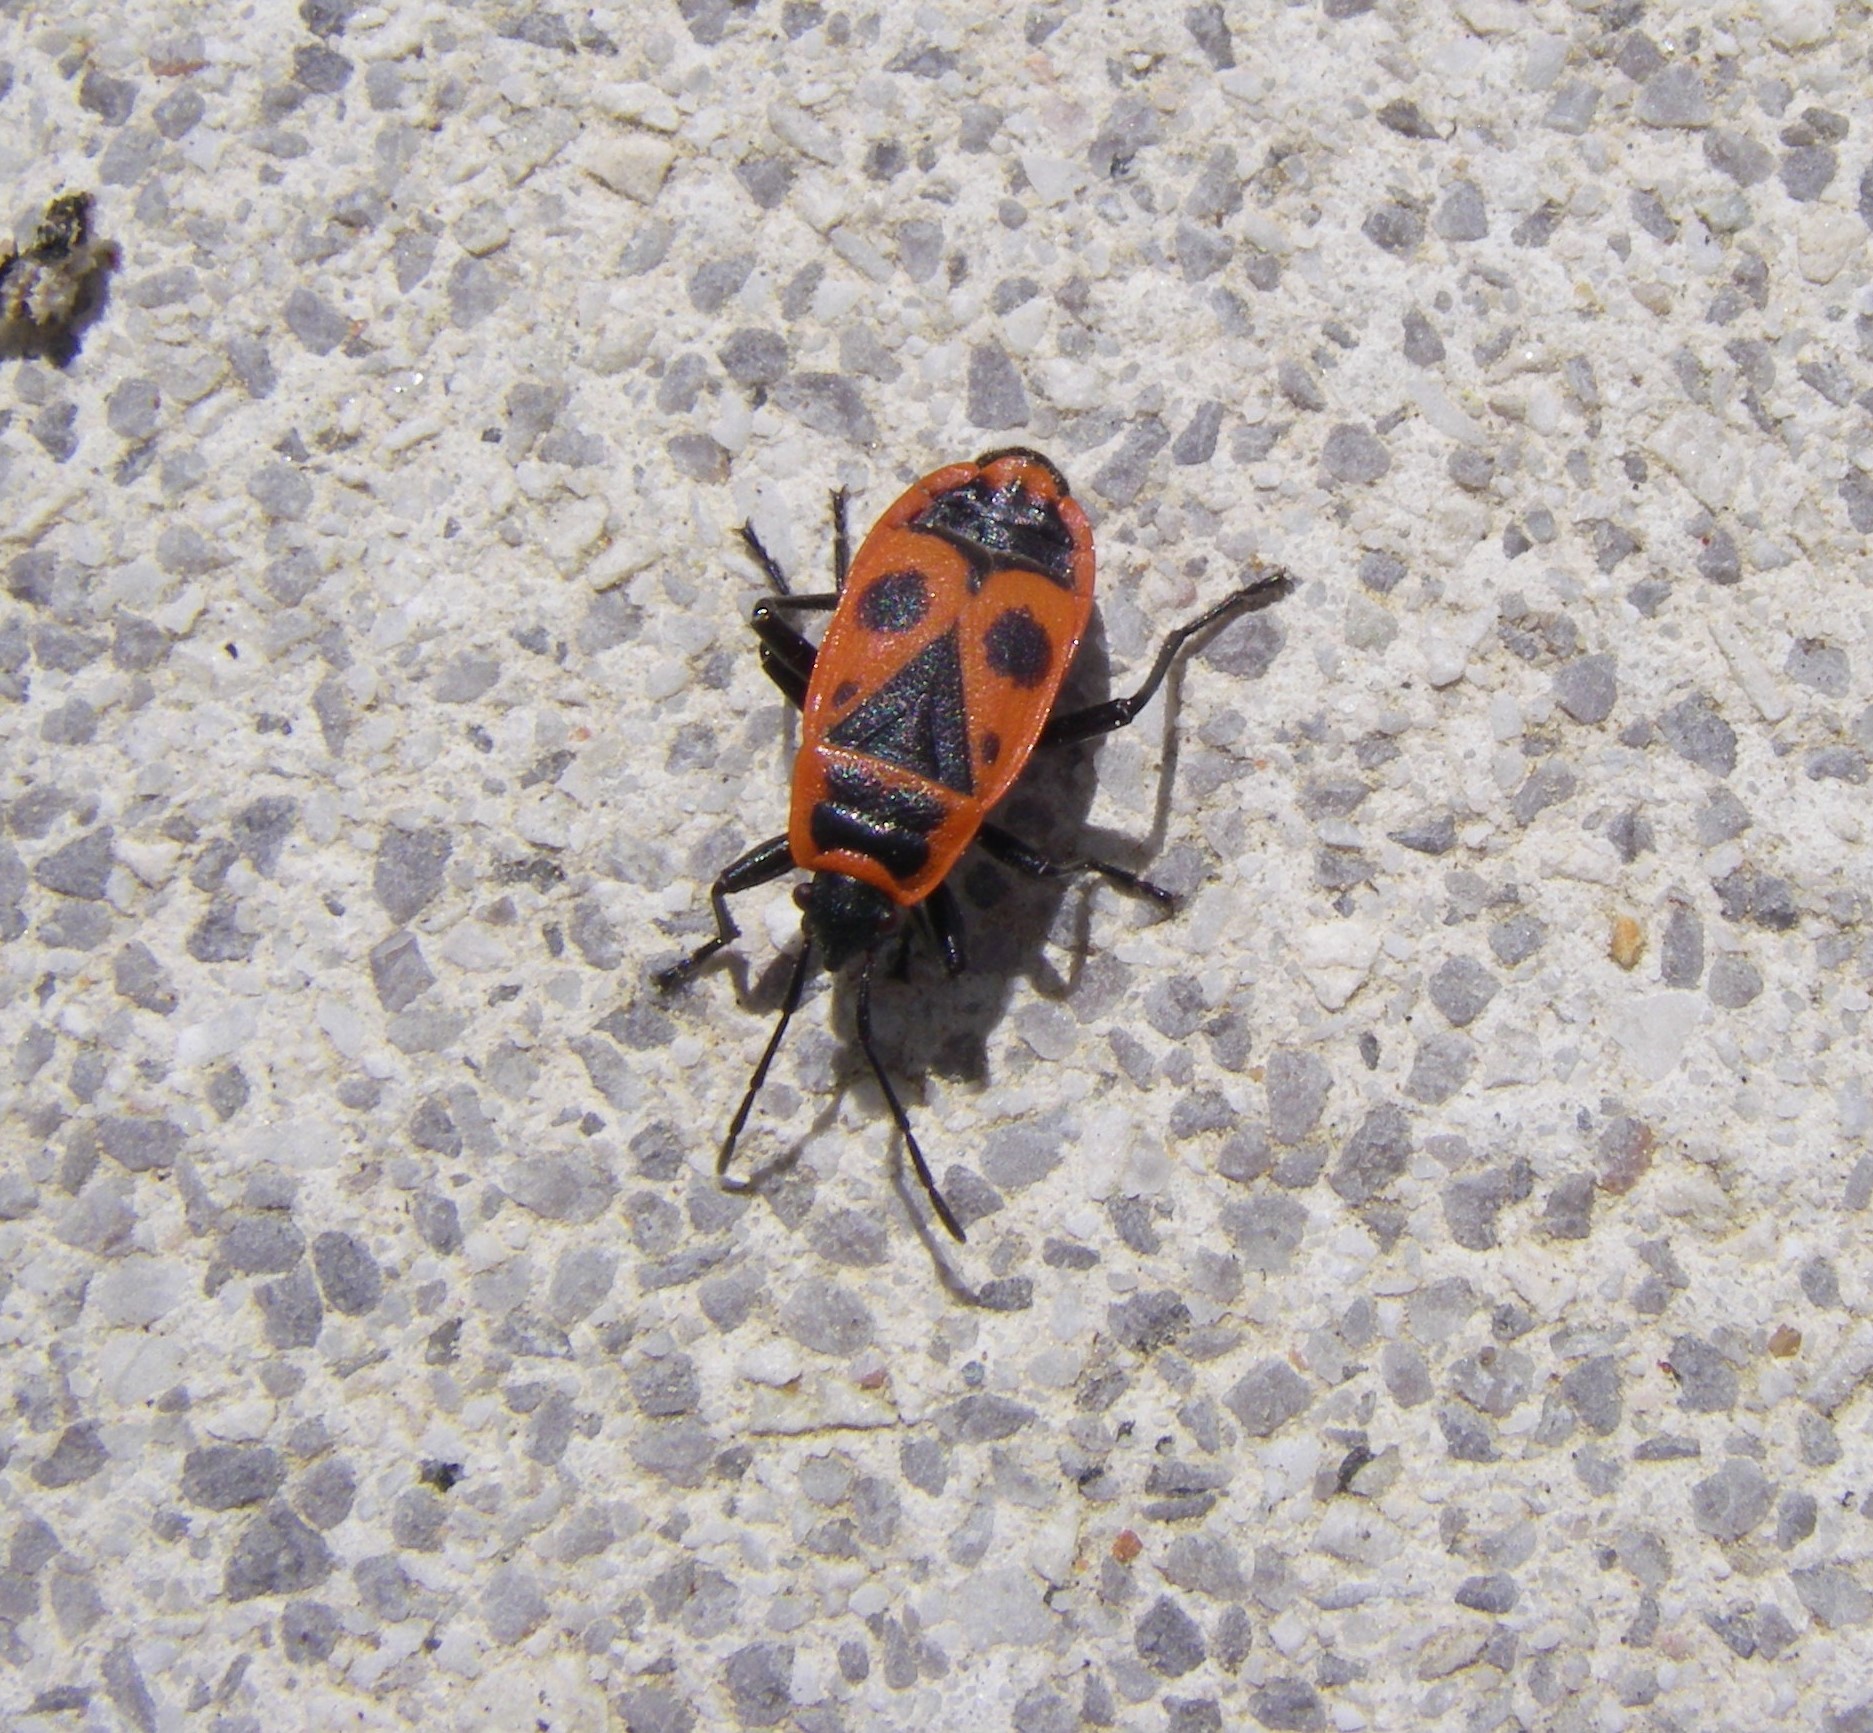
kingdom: Animalia
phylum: Arthropoda
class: Insecta
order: Hemiptera
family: Pyrrhocoridae
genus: Pyrrhocoris
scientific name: Pyrrhocoris apterus
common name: Firebug
